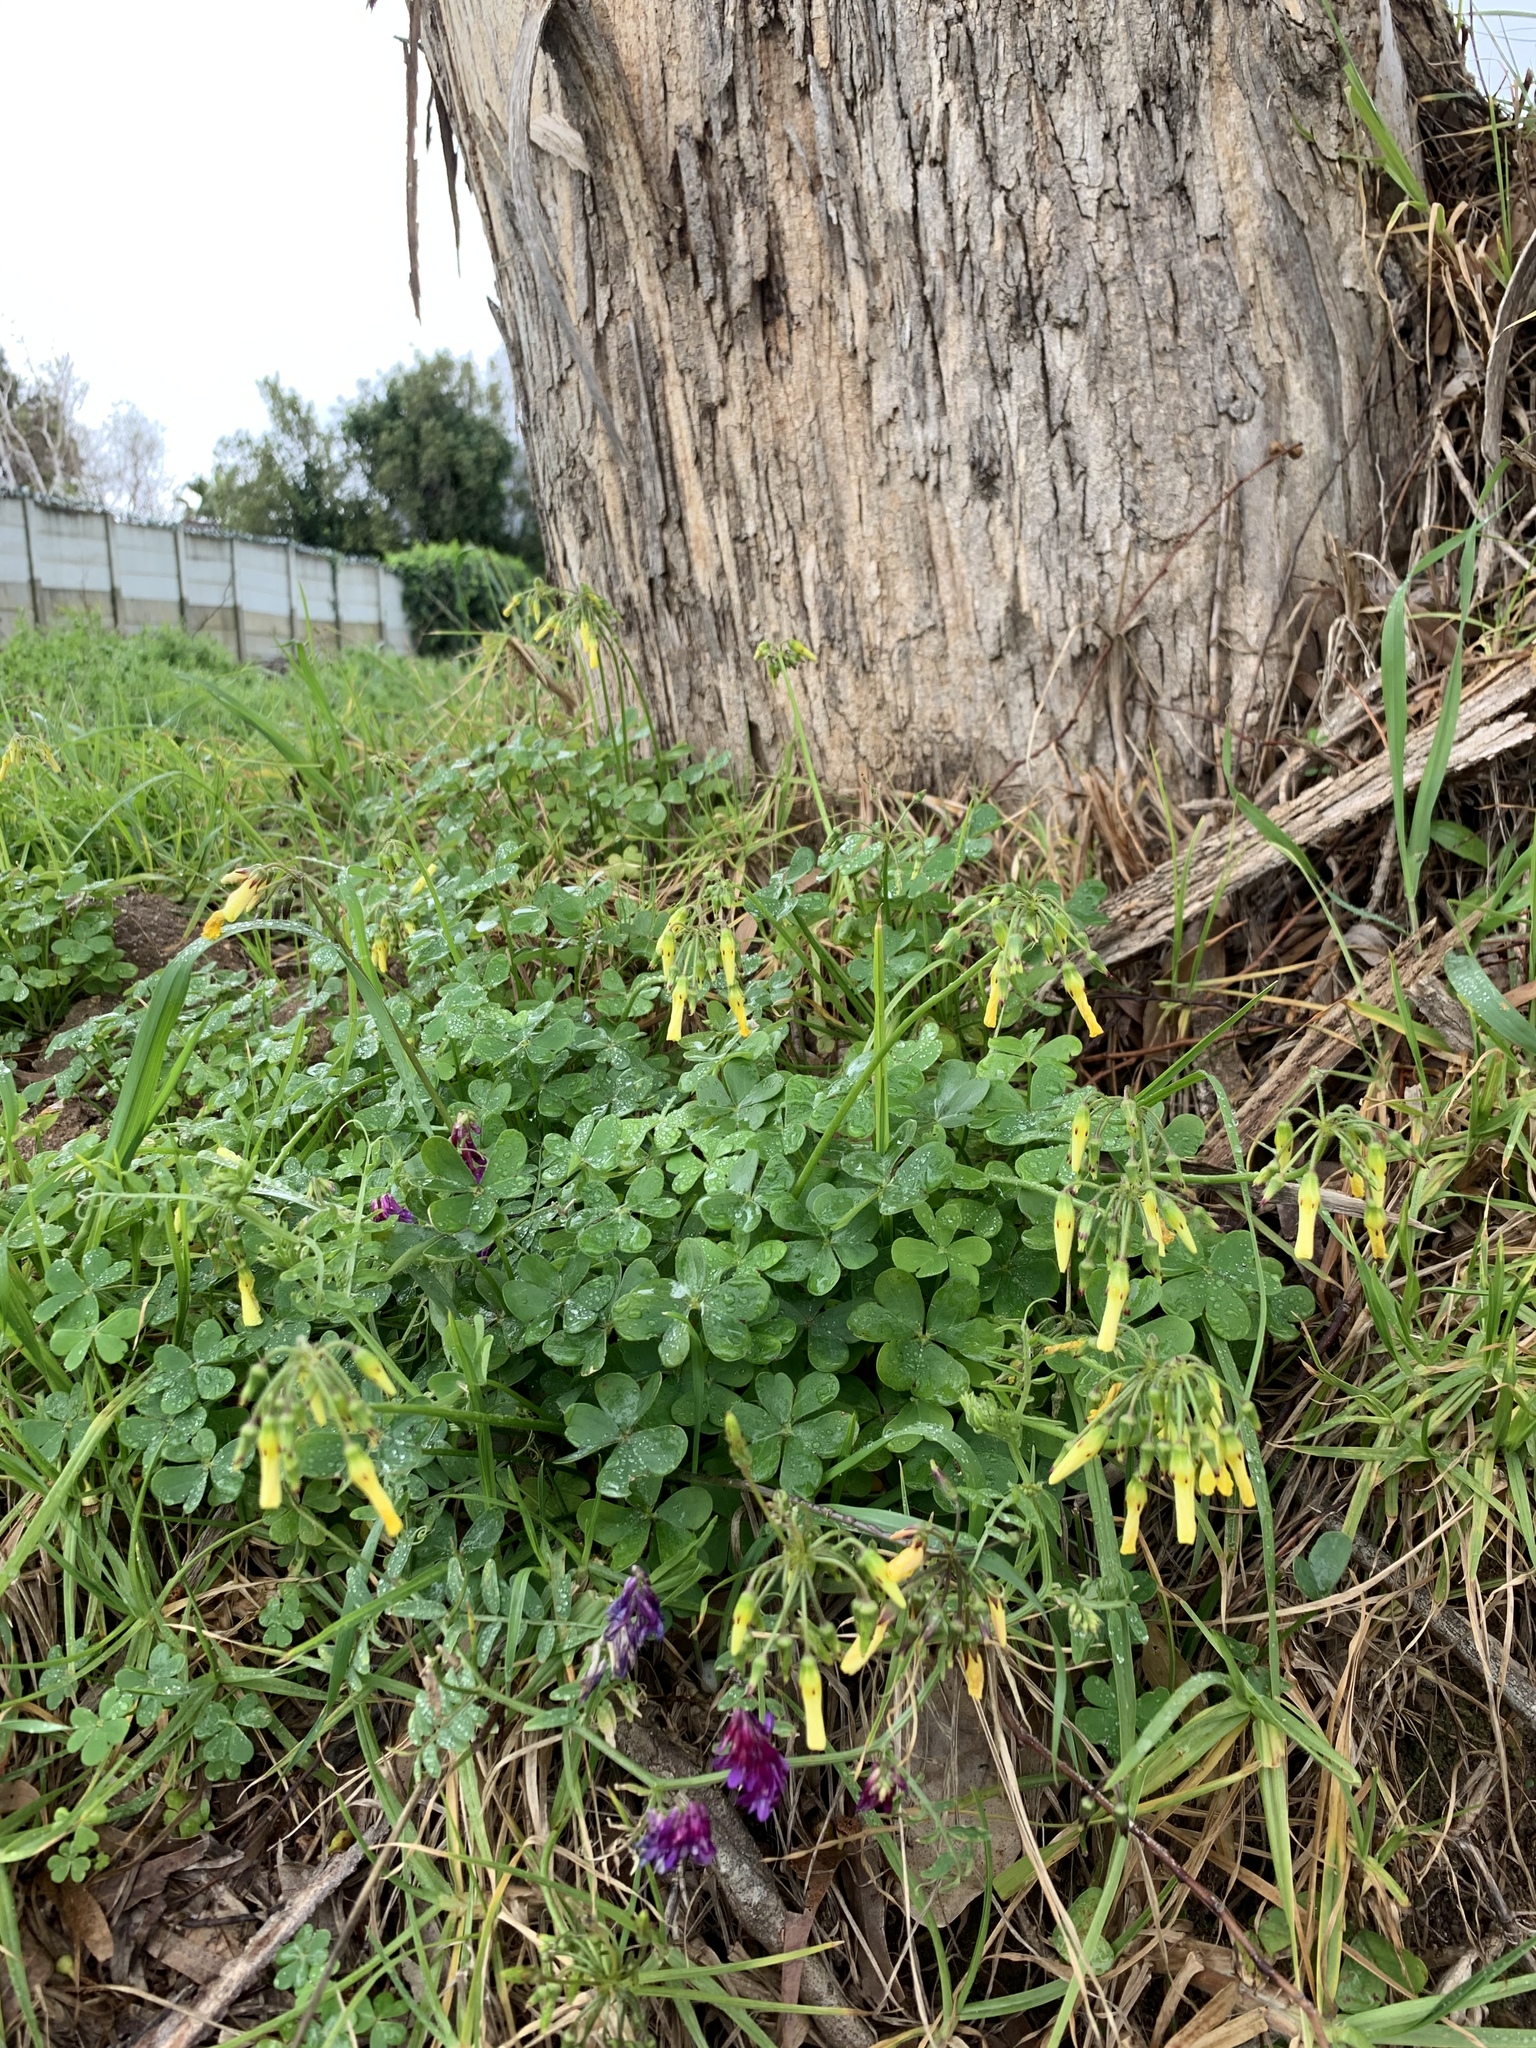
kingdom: Plantae
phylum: Tracheophyta
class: Magnoliopsida
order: Oxalidales
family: Oxalidaceae
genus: Oxalis
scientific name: Oxalis pes-caprae
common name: Bermuda-buttercup
